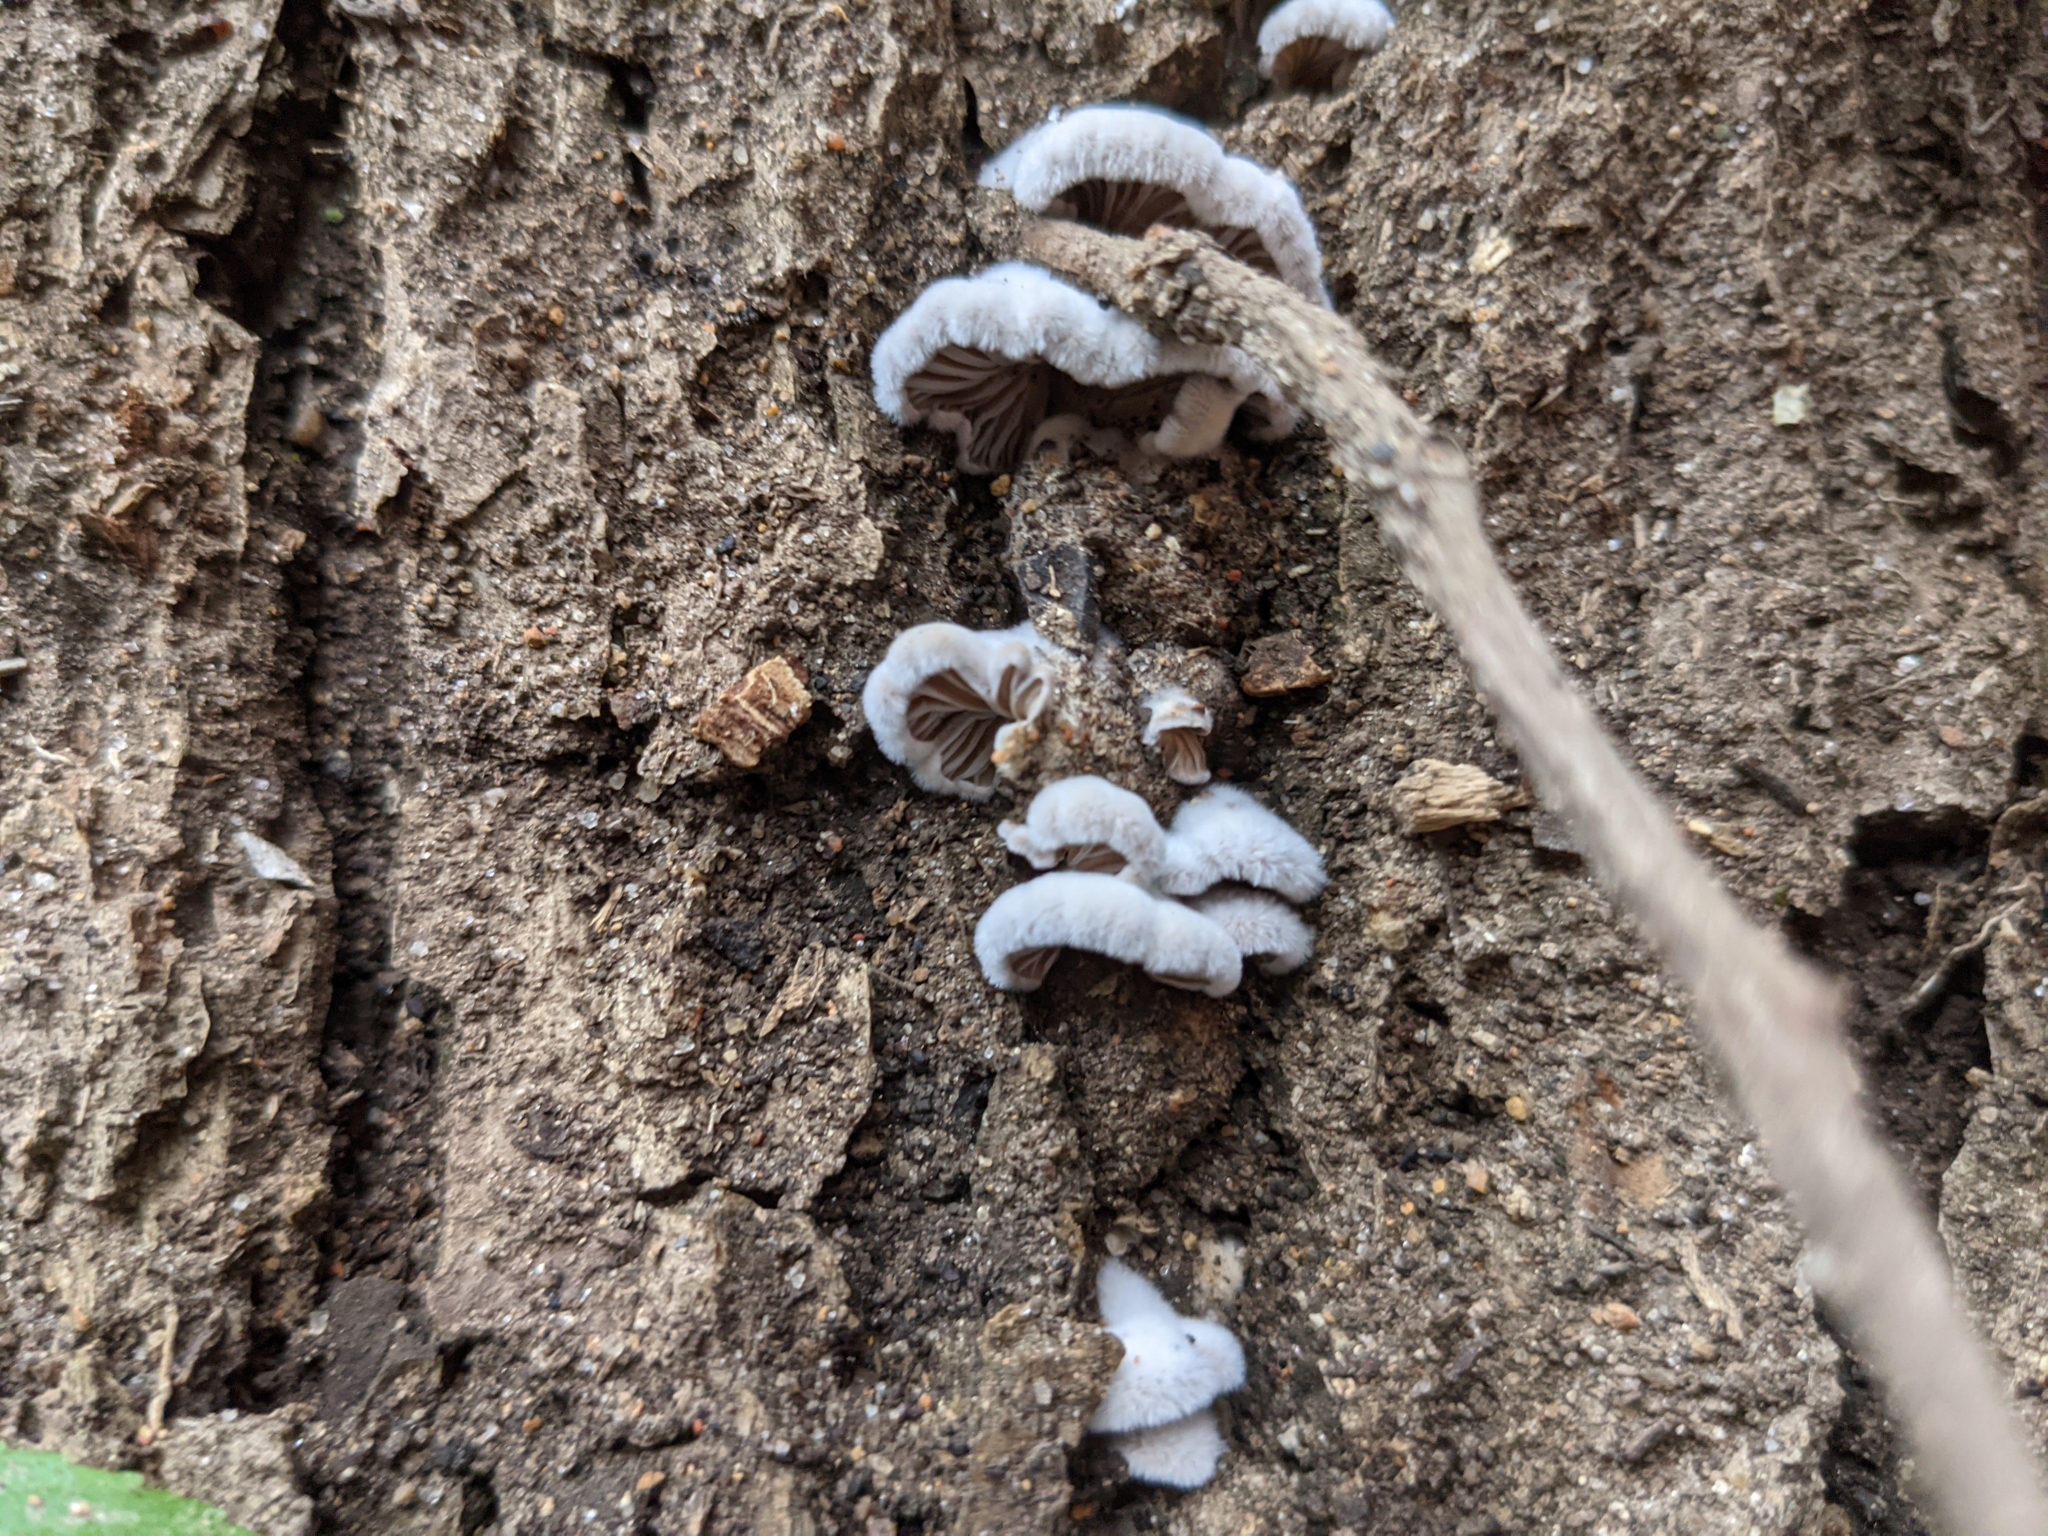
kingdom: Fungi
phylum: Basidiomycota
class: Agaricomycetes
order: Agaricales
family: Schizophyllaceae
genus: Schizophyllum
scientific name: Schizophyllum commune
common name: Common porecrust
